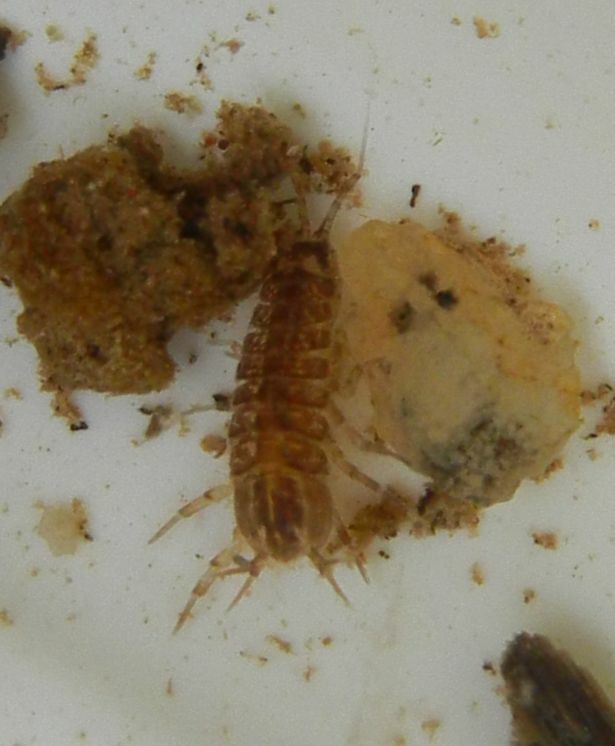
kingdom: Animalia
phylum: Arthropoda
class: Malacostraca
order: Isopoda
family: Asellidae
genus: Asellus
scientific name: Asellus aquaticus
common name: Water hog lice/slaters
